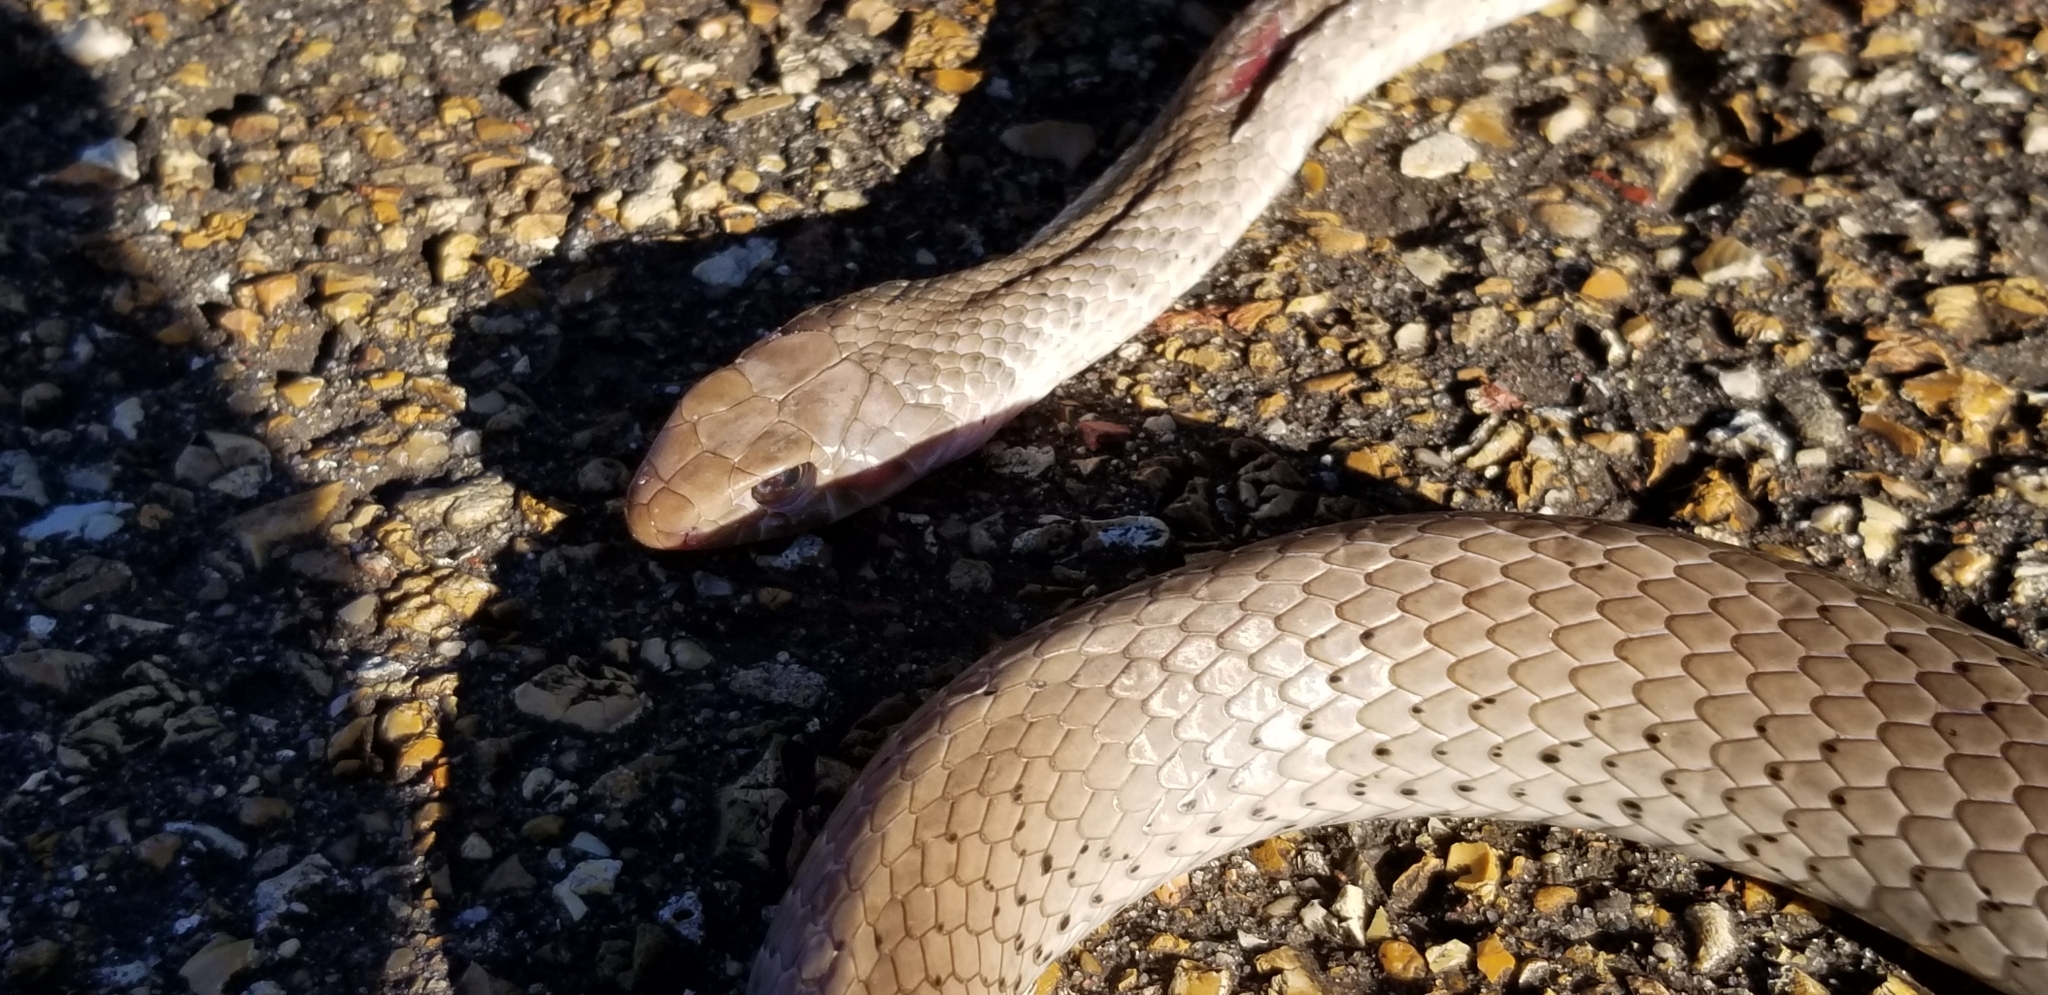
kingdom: Animalia
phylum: Chordata
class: Squamata
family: Colubridae
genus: Coluber
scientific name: Coluber constrictor
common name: Eastern racer
